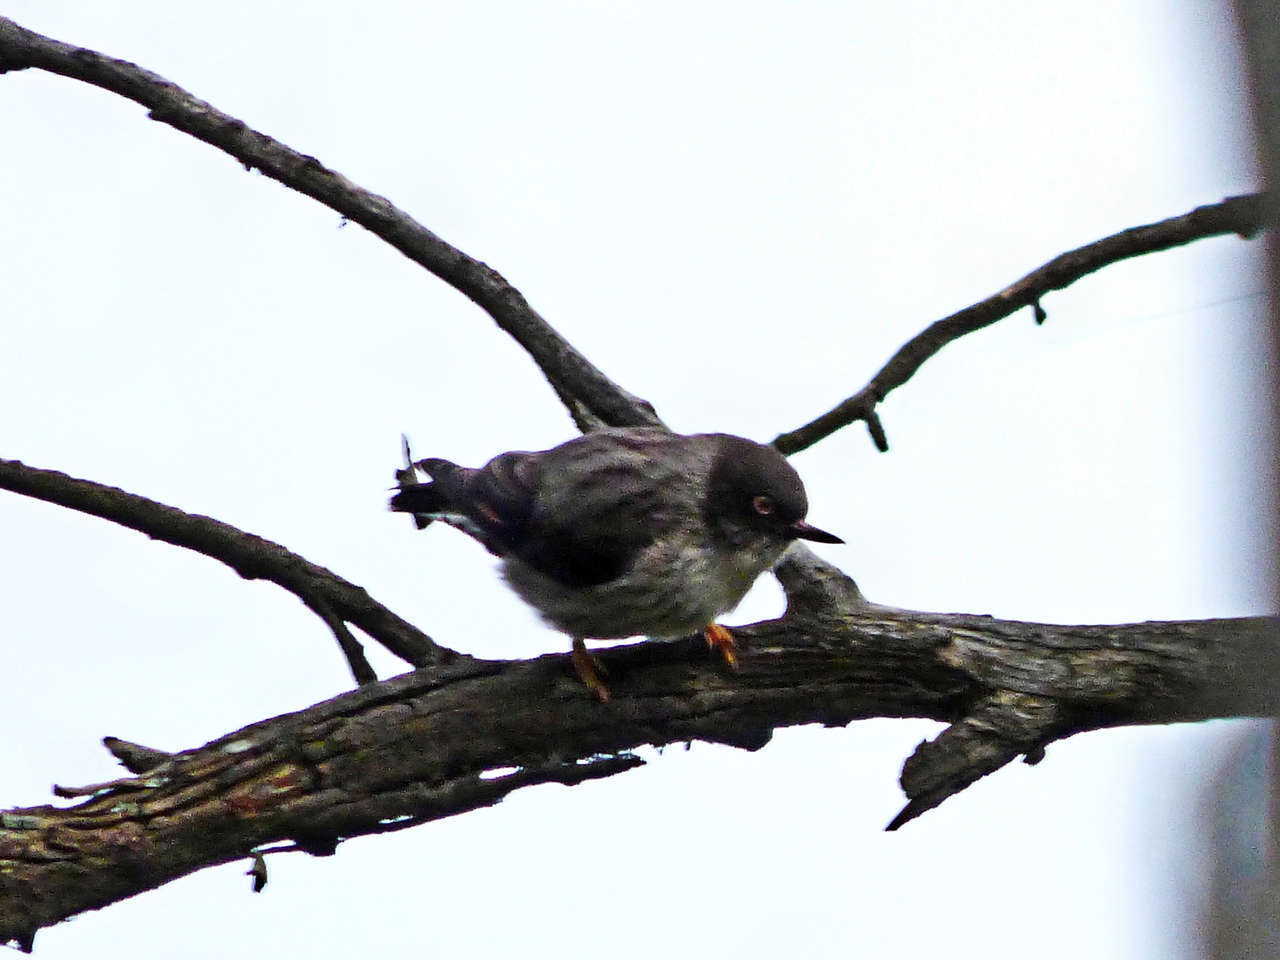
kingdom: Animalia
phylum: Chordata
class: Aves
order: Passeriformes
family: Neosittidae
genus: Daphoenositta
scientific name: Daphoenositta chrysoptera
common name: Varied sittella
